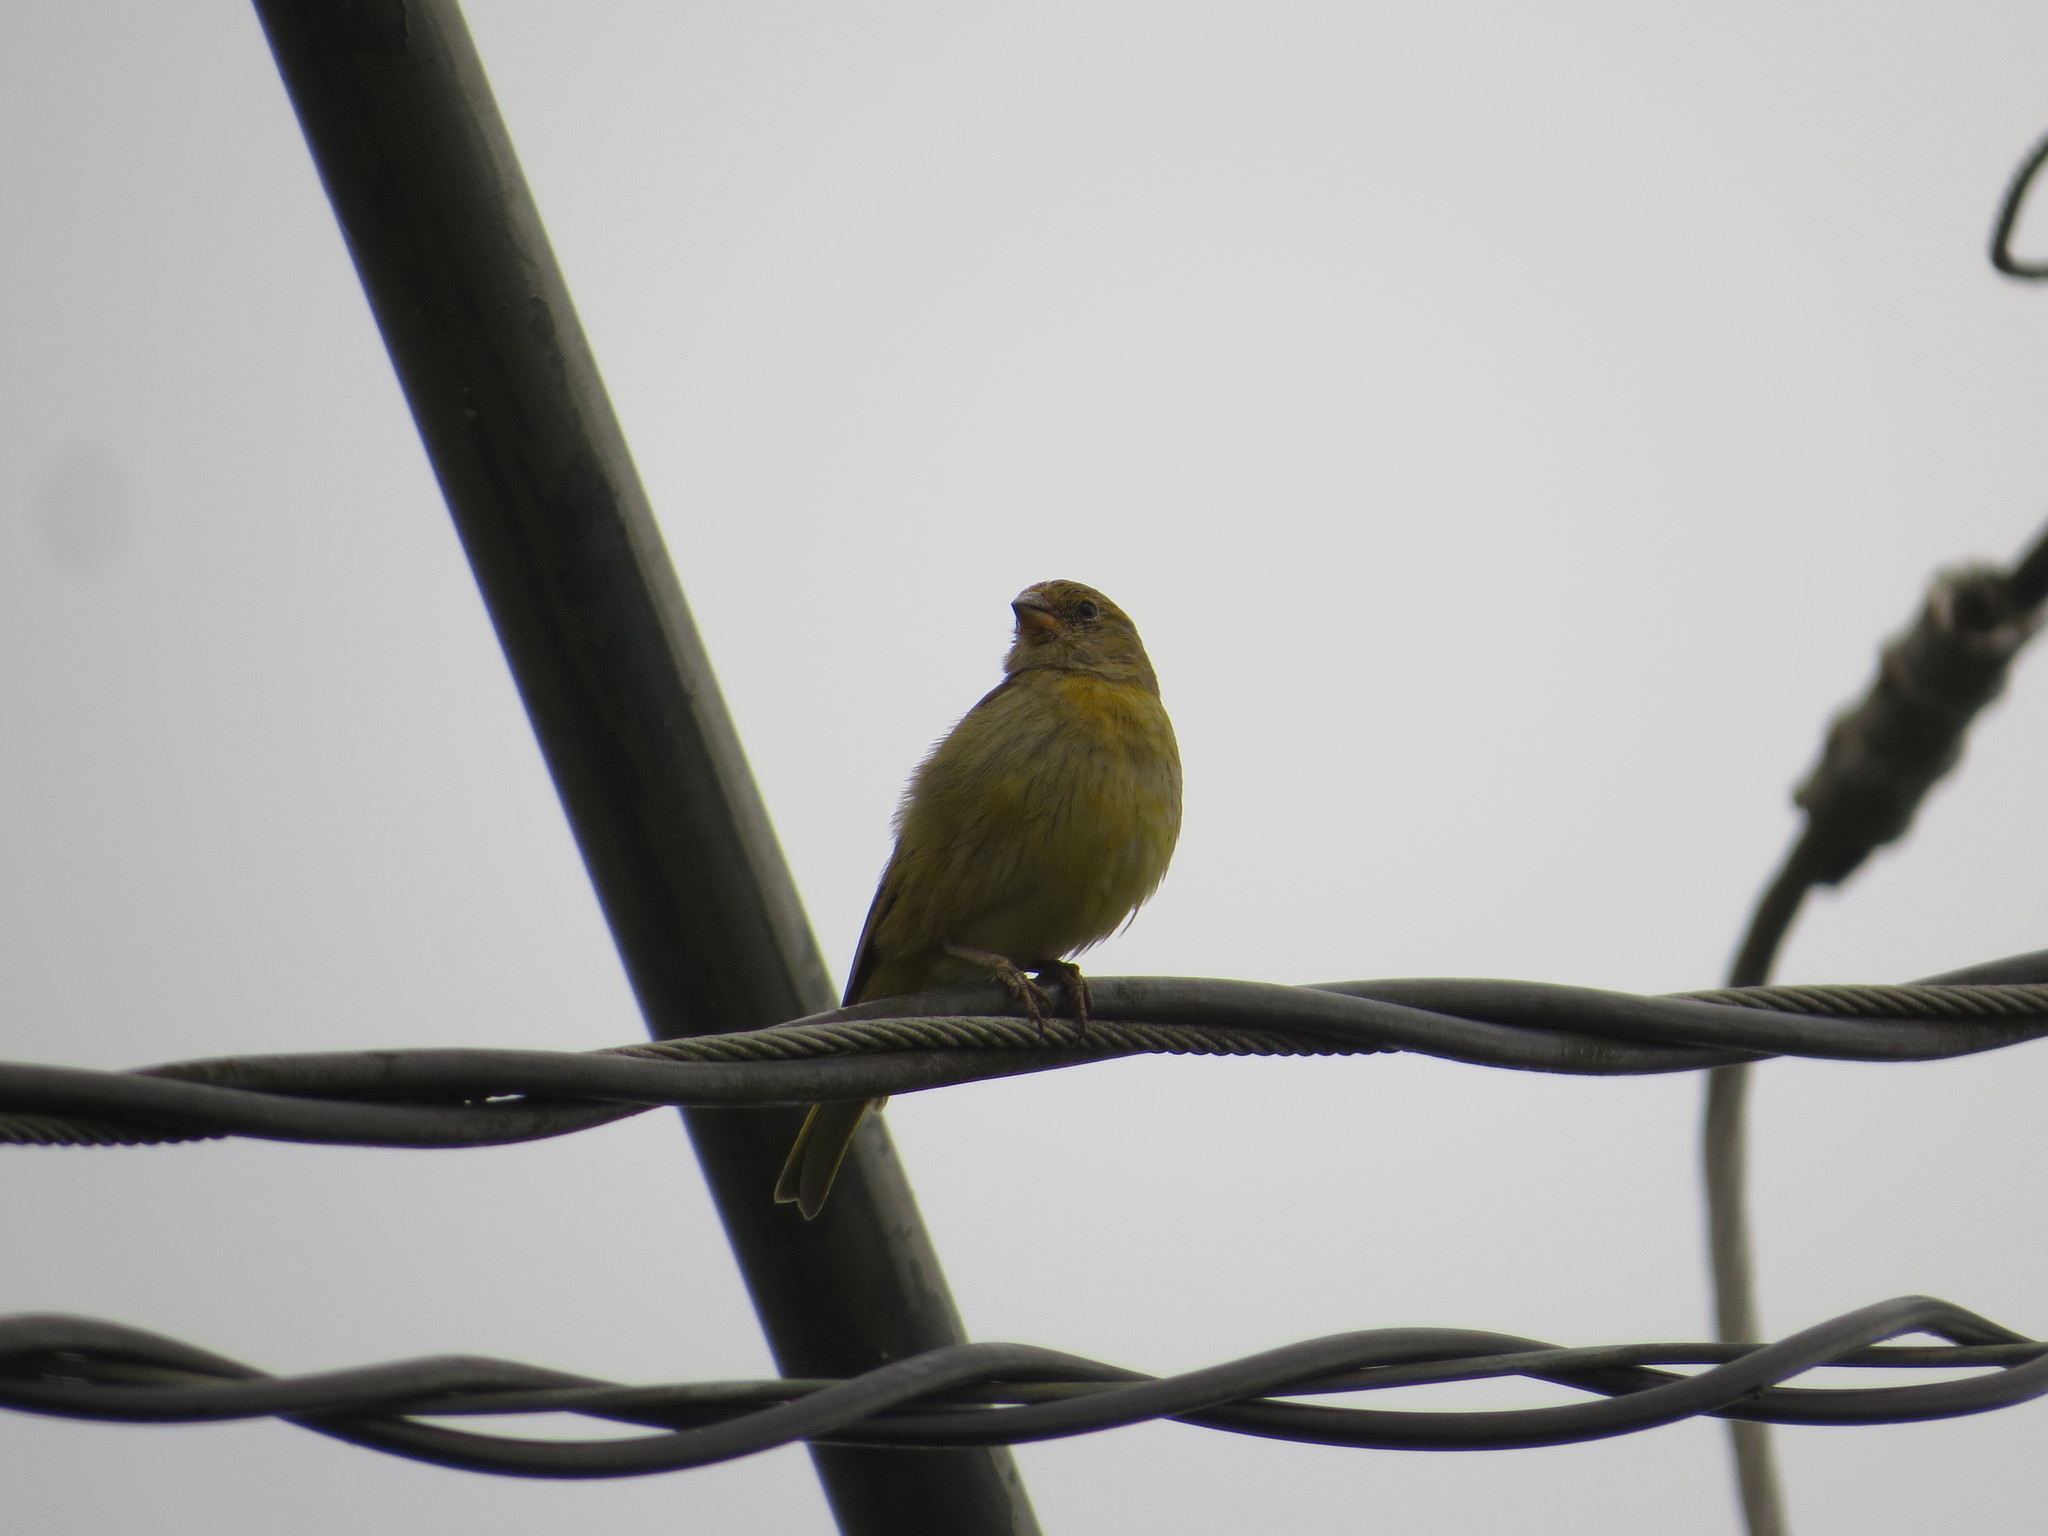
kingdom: Animalia
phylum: Chordata
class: Aves
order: Passeriformes
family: Thraupidae
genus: Sicalis
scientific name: Sicalis flaveola
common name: Saffron finch
